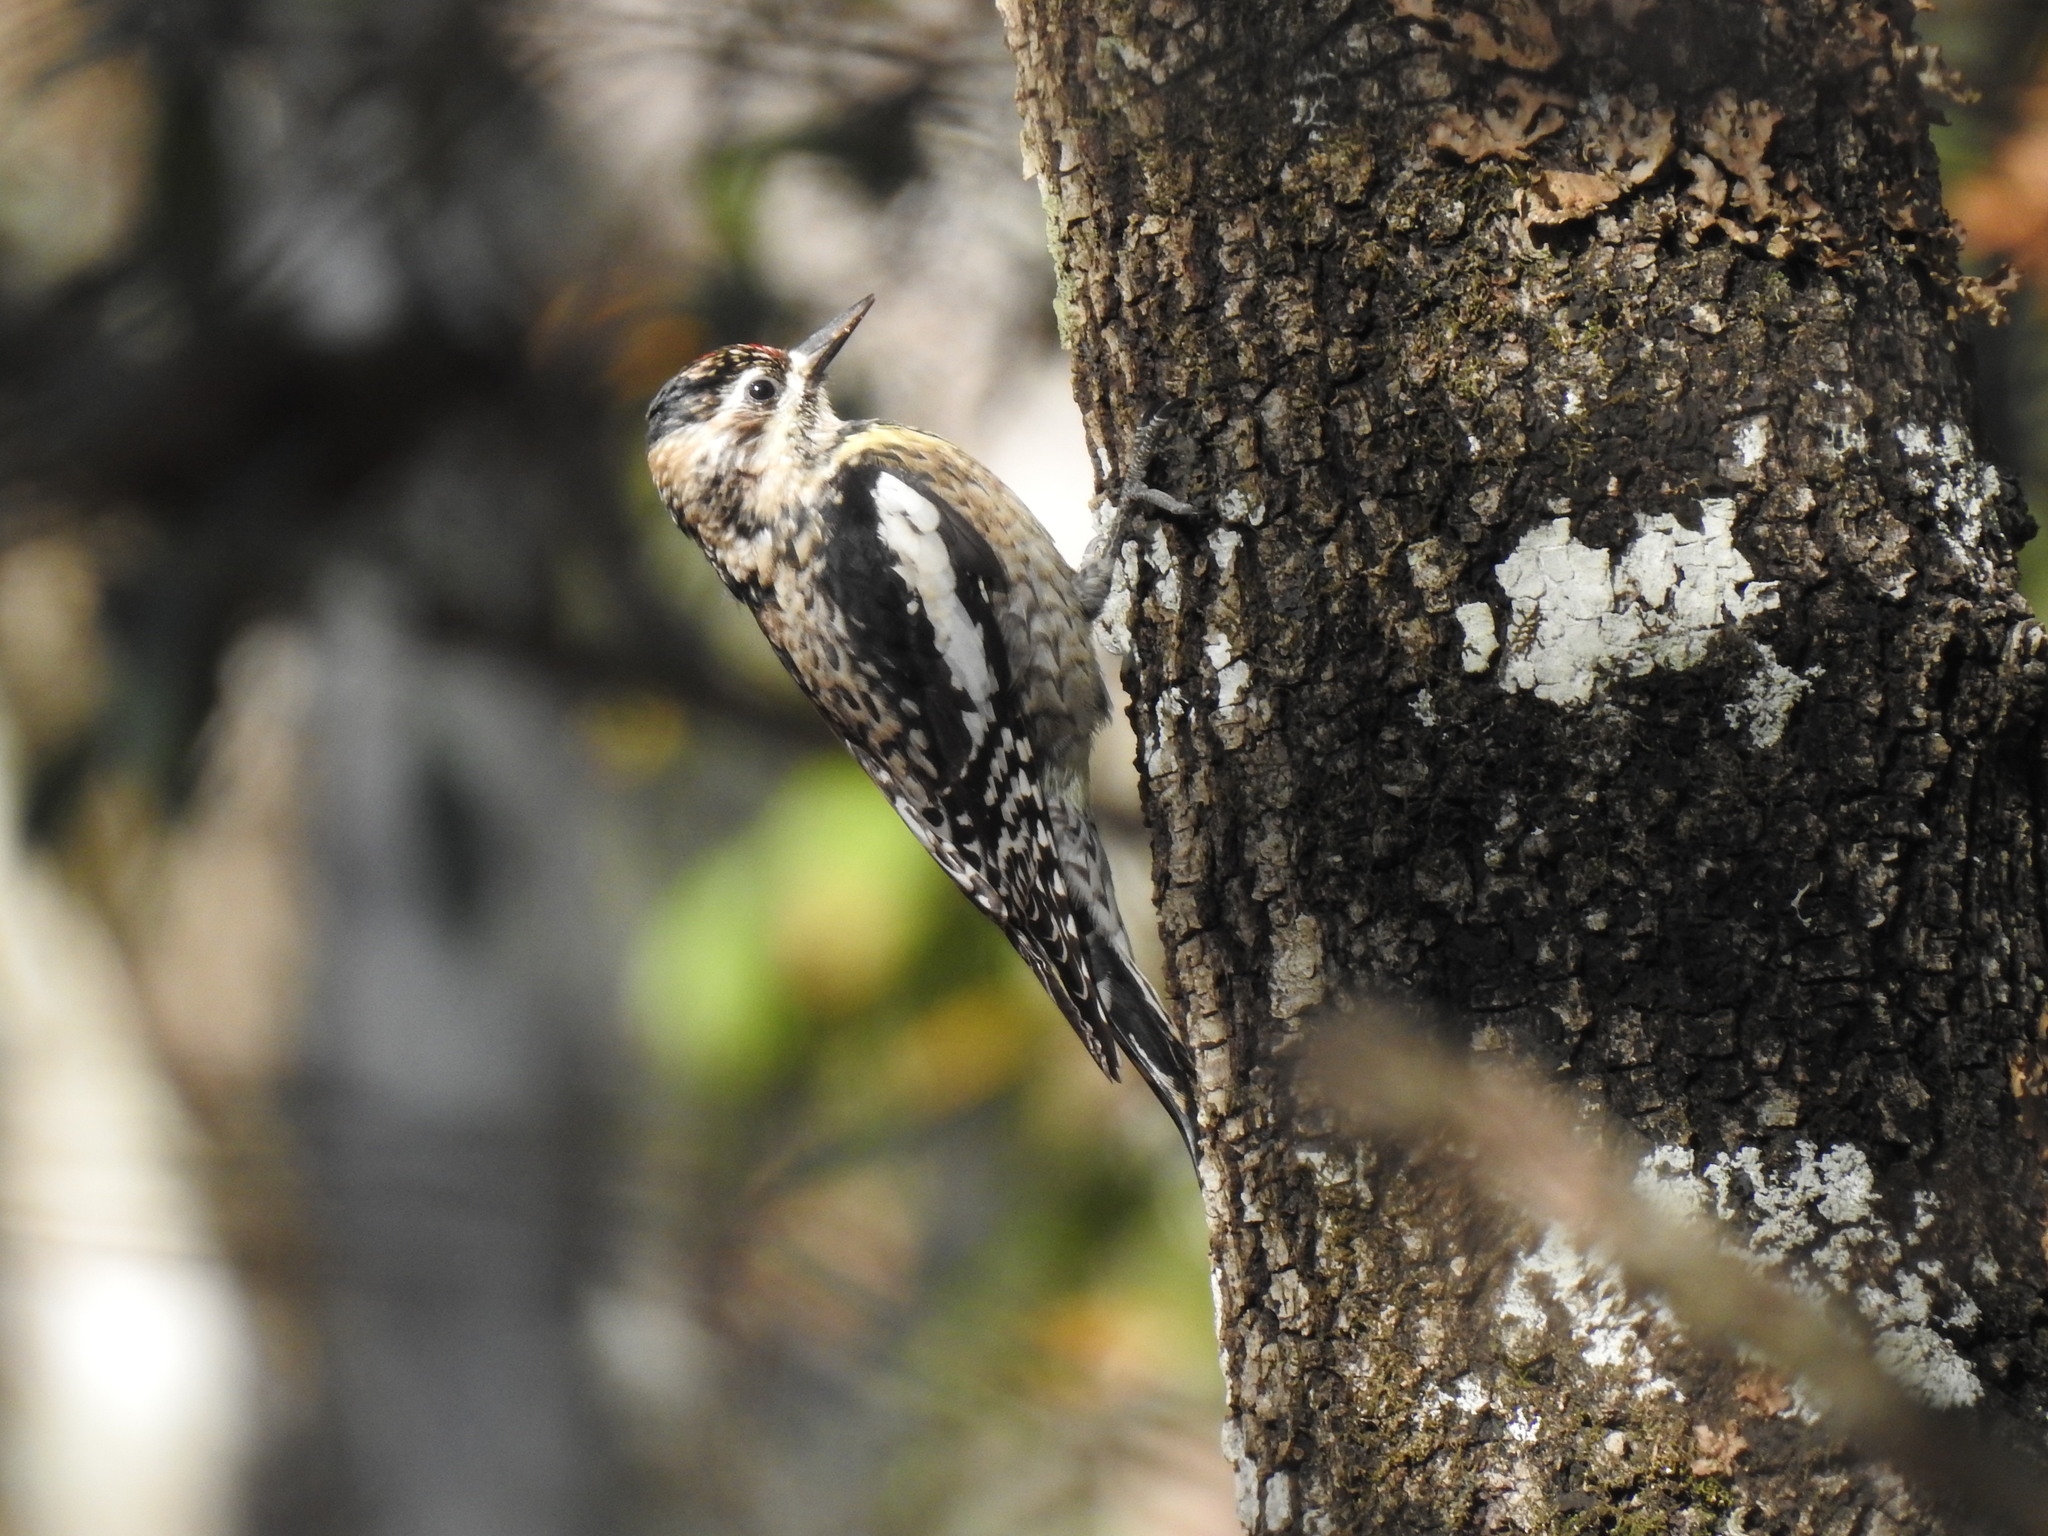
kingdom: Animalia
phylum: Chordata
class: Aves
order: Piciformes
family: Picidae
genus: Sphyrapicus
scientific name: Sphyrapicus varius
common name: Yellow-bellied sapsucker
